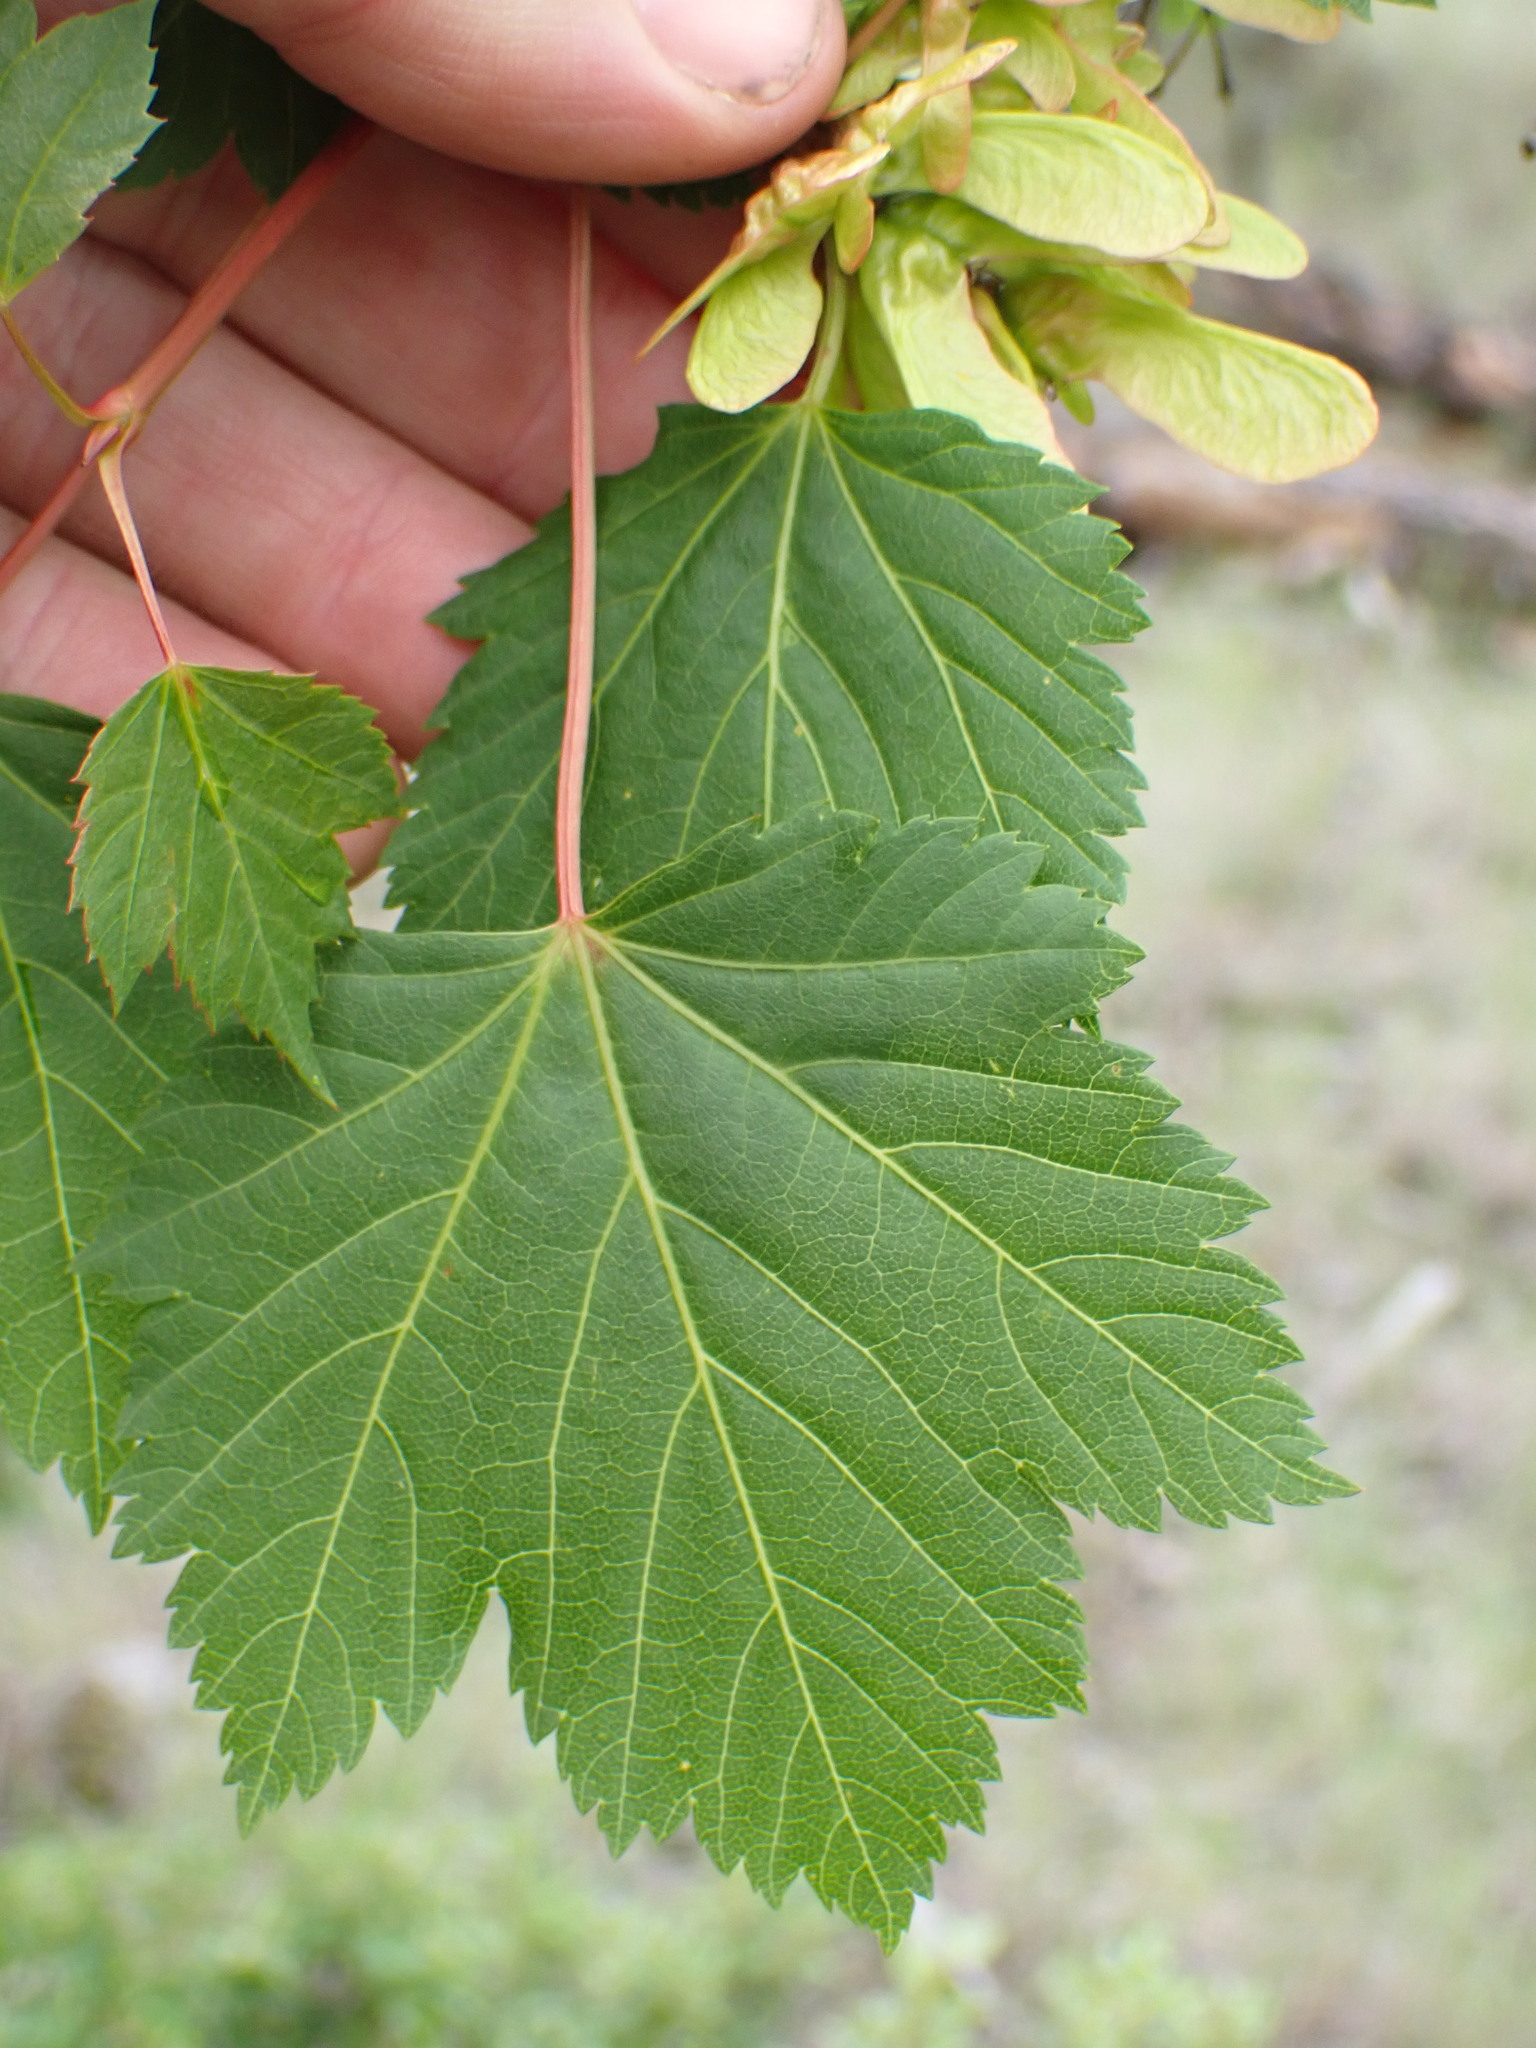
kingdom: Plantae
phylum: Tracheophyta
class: Magnoliopsida
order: Sapindales
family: Sapindaceae
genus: Acer
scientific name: Acer glabrum
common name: Rocky mountain maple
